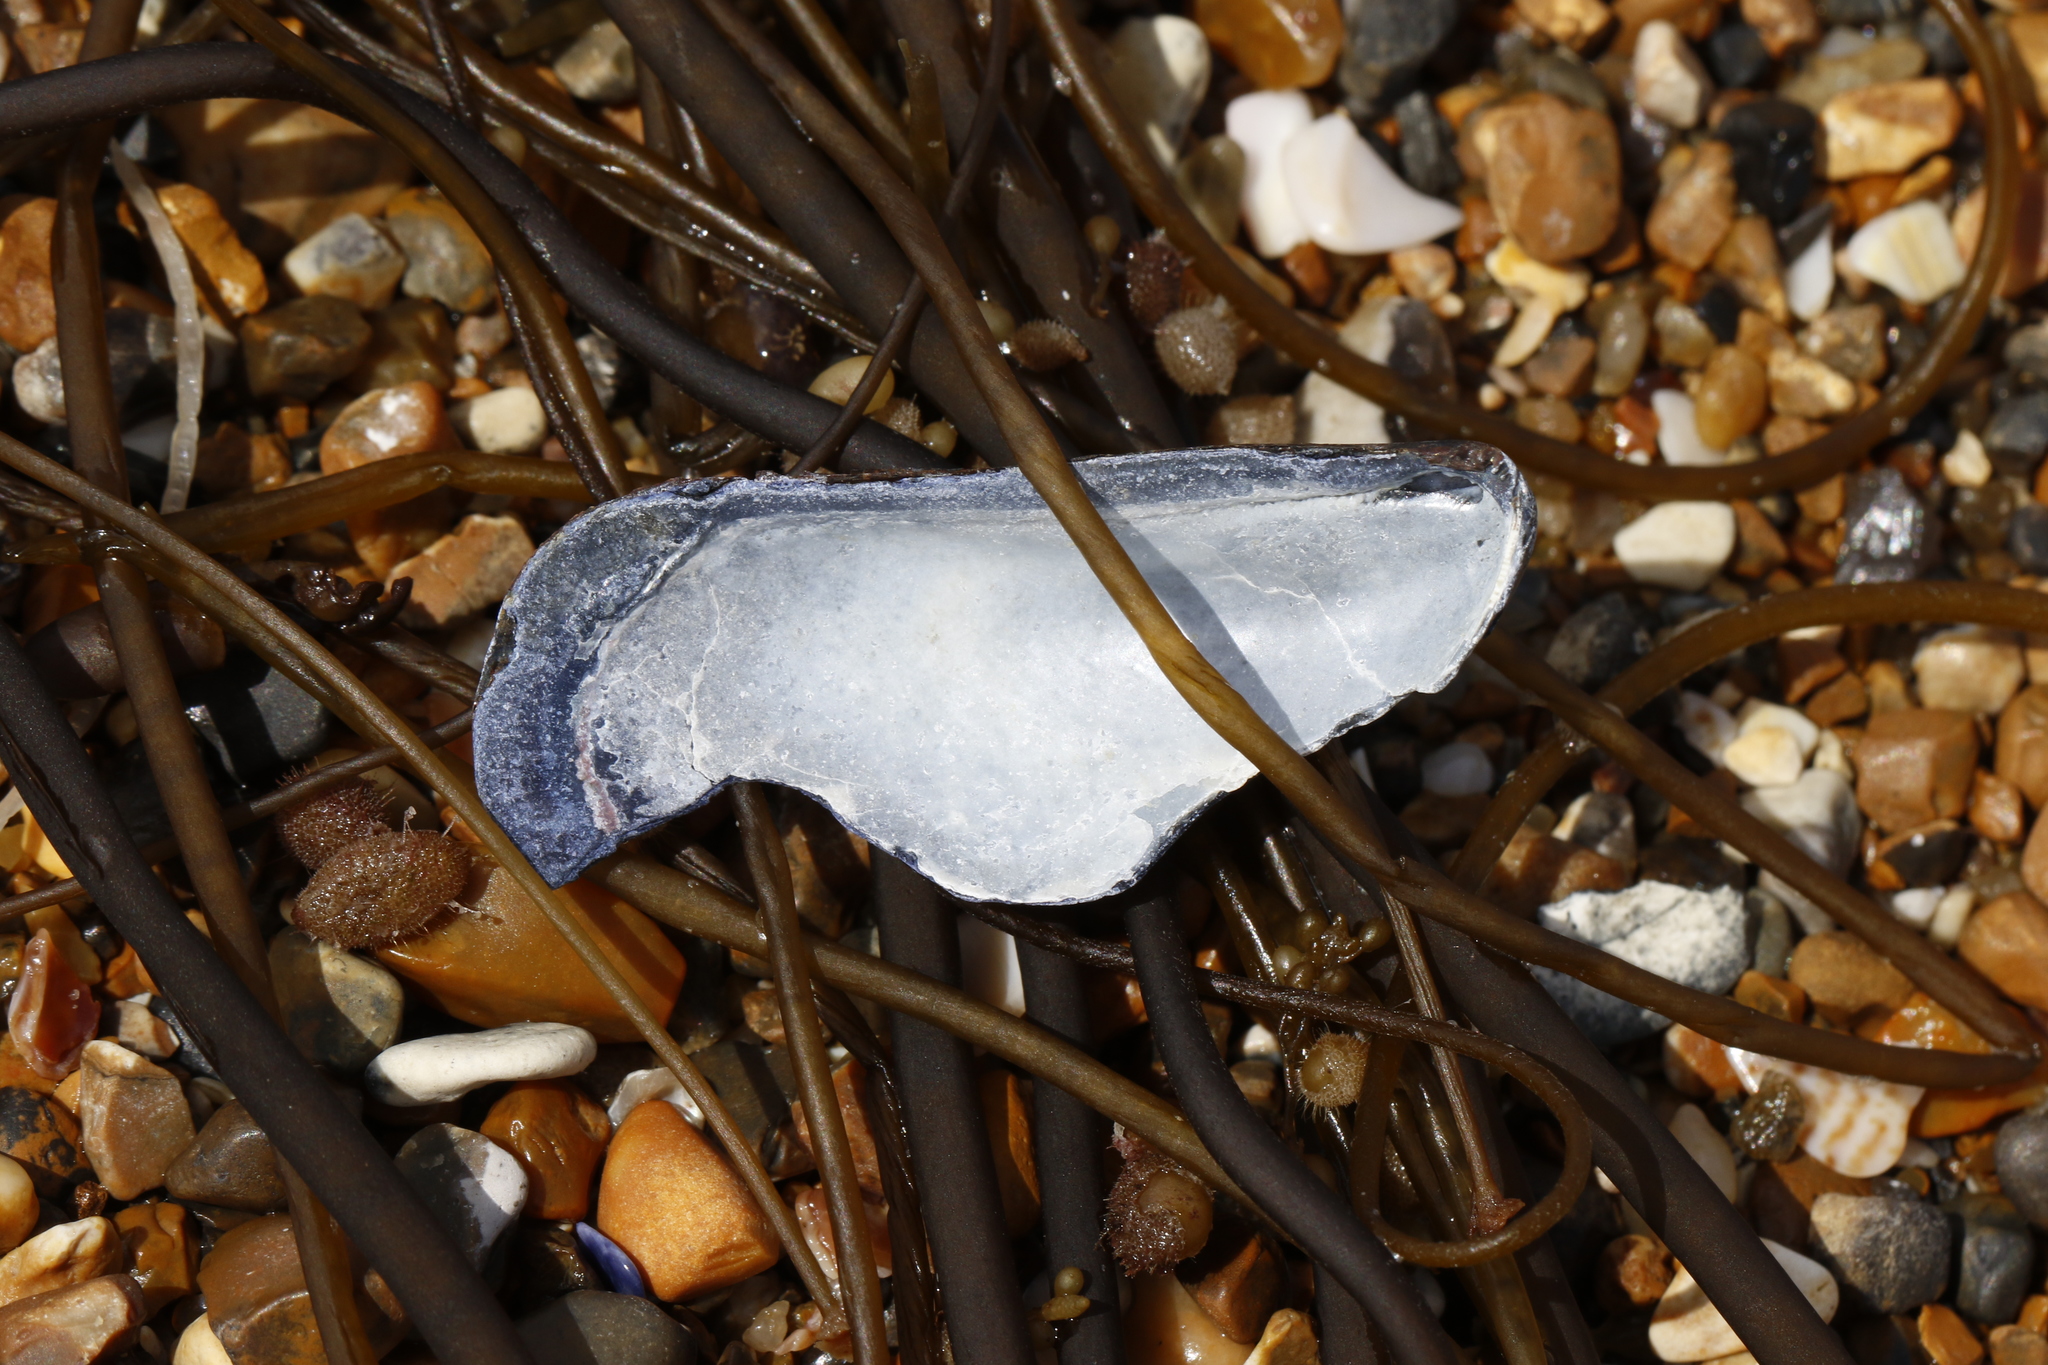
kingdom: Animalia
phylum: Mollusca
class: Bivalvia
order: Mytilida
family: Mytilidae
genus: Mytilus
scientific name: Mytilus edulis
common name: Blue mussel
